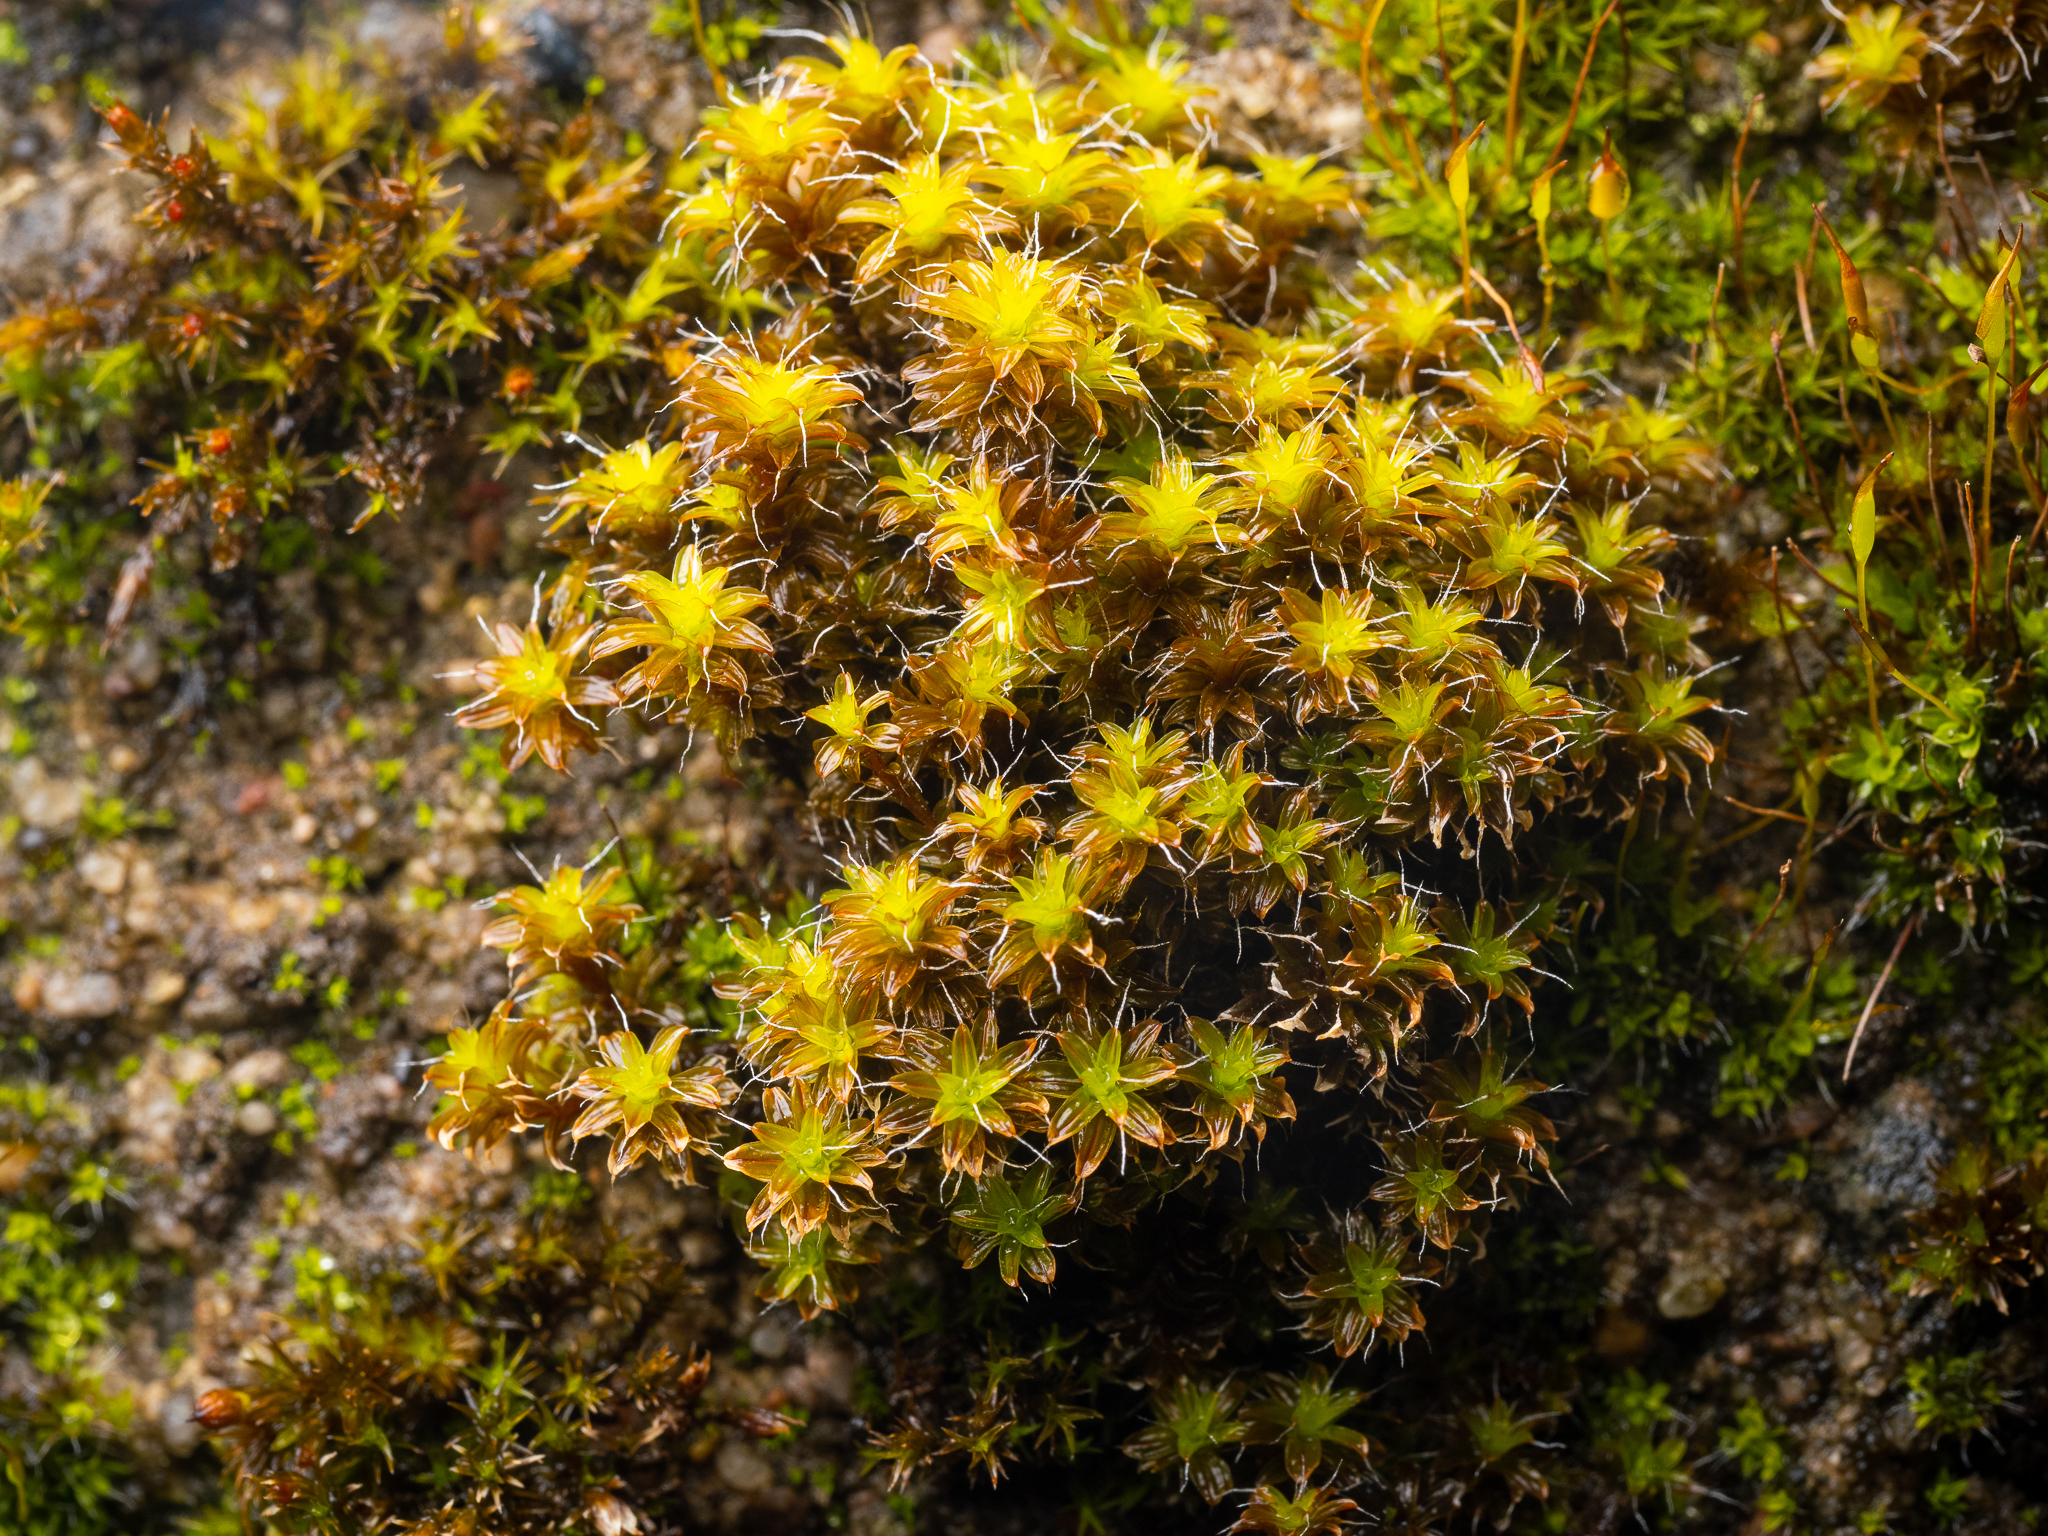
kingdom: Plantae
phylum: Bryophyta
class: Bryopsida
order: Pottiales
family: Pottiaceae
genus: Syntrichia
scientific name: Syntrichia ruralis
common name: Sidewalk screw moss
